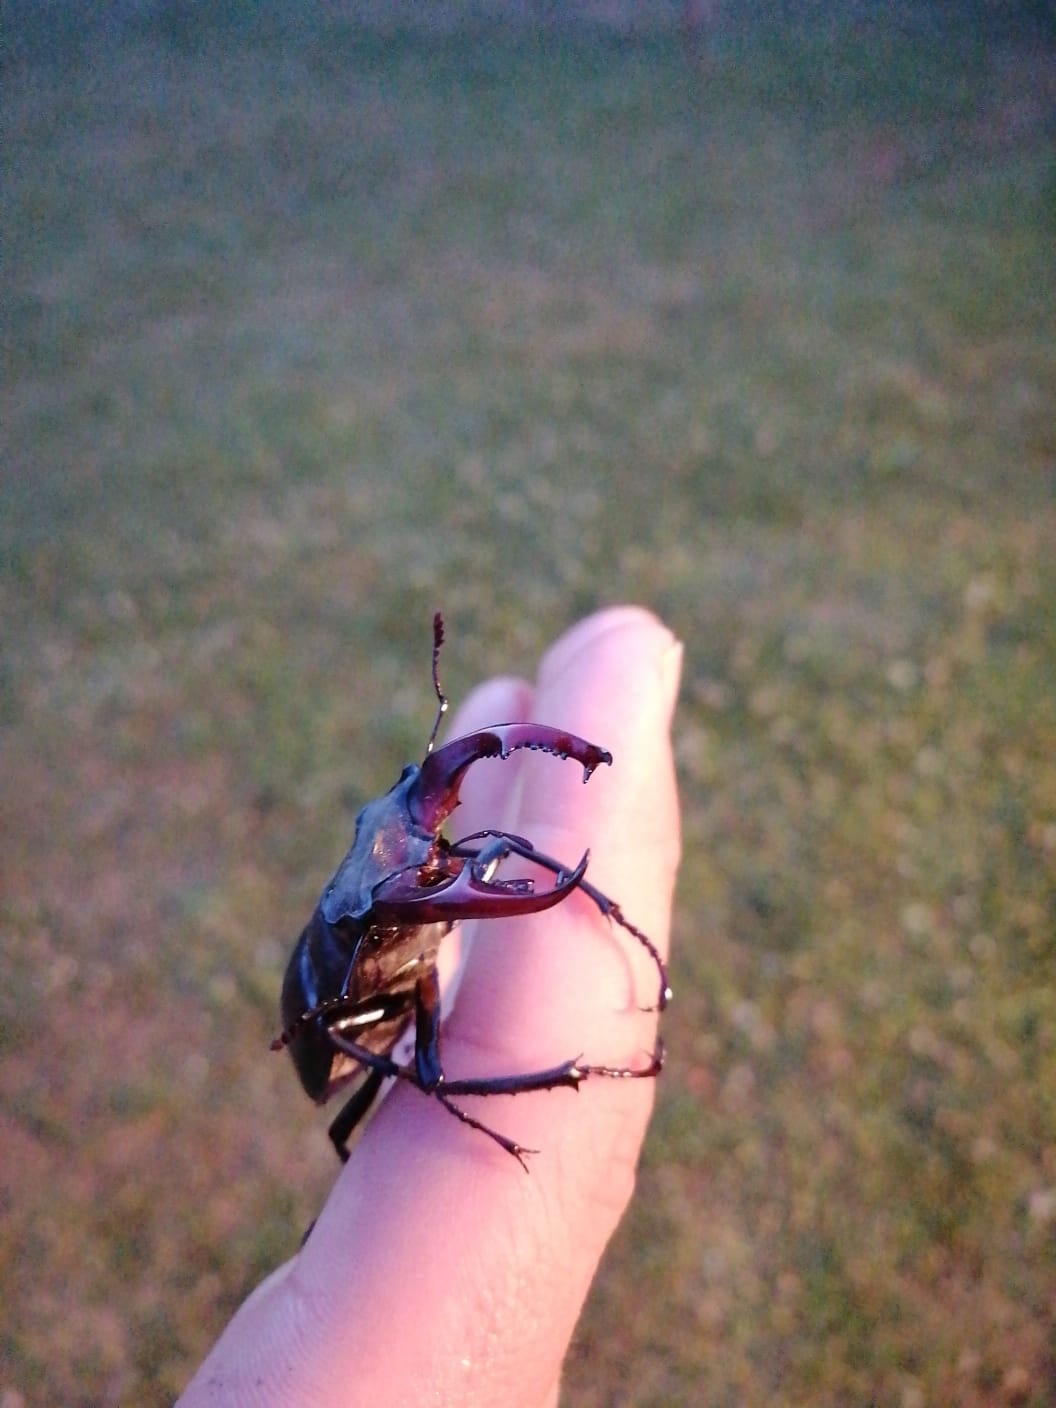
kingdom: Animalia
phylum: Arthropoda
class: Insecta
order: Coleoptera
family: Lucanidae
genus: Lucanus
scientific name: Lucanus cervus
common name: Stag beetle
